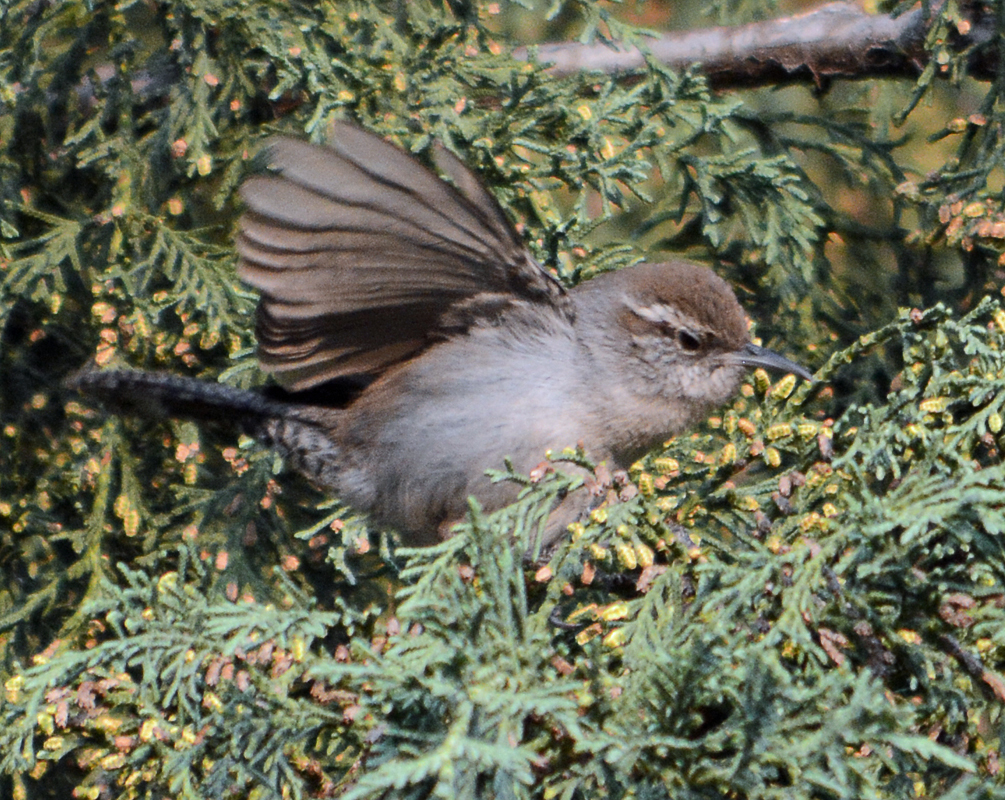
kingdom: Animalia
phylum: Chordata
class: Aves
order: Passeriformes
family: Troglodytidae
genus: Thryomanes
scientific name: Thryomanes bewickii
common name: Bewick's wren
